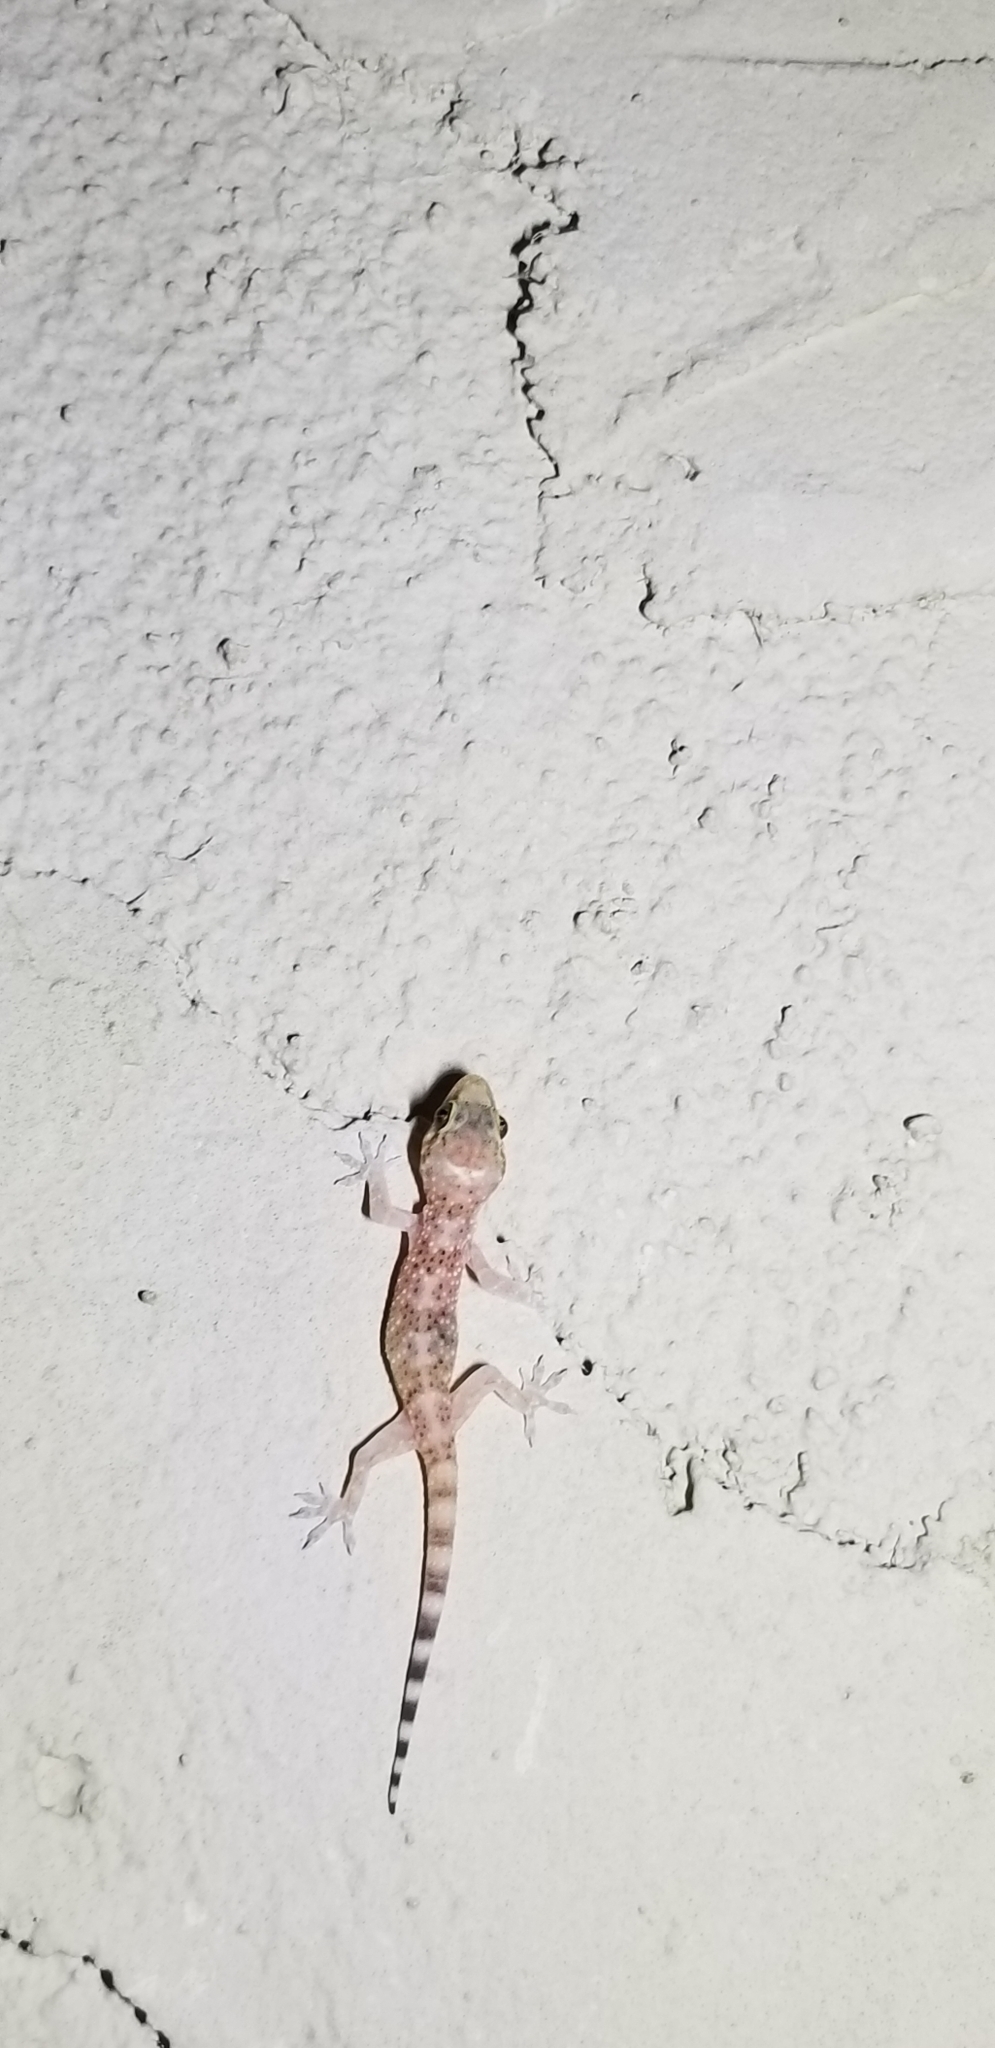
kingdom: Animalia
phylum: Chordata
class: Squamata
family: Gekkonidae
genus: Hemidactylus
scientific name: Hemidactylus turcicus
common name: Turkish gecko
